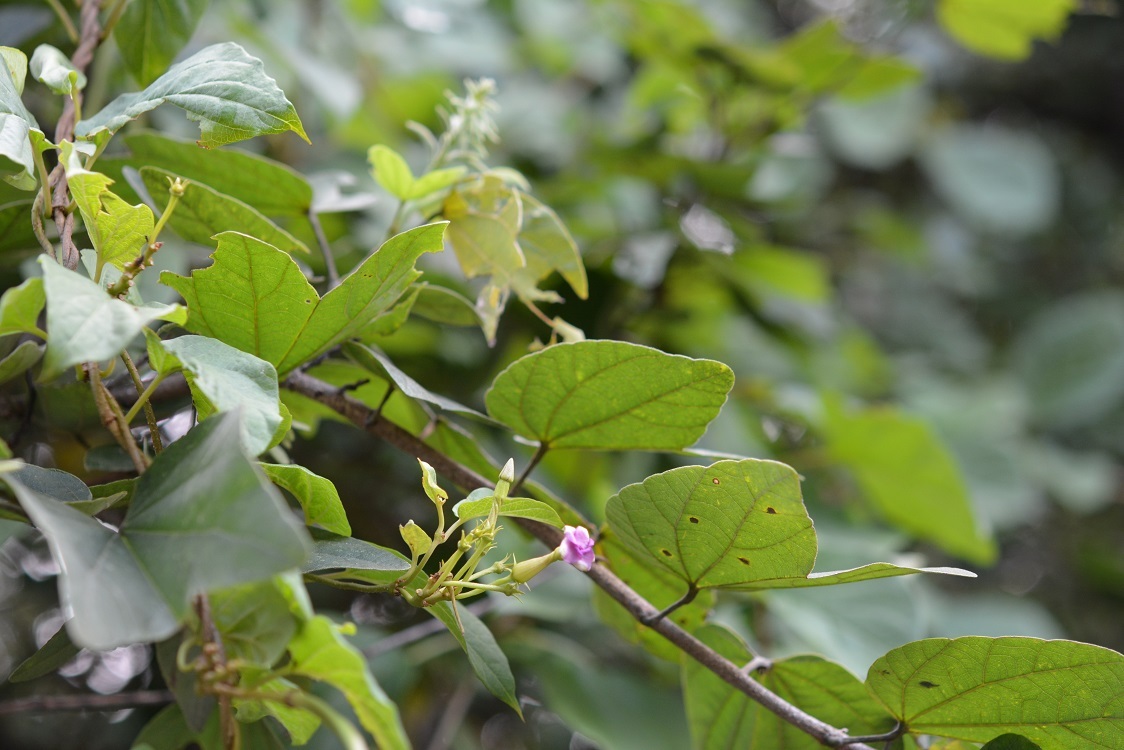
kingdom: Plantae
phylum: Tracheophyta
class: Magnoliopsida
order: Gentianales
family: Apocynaceae
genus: Laubertia
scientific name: Laubertia contorta
